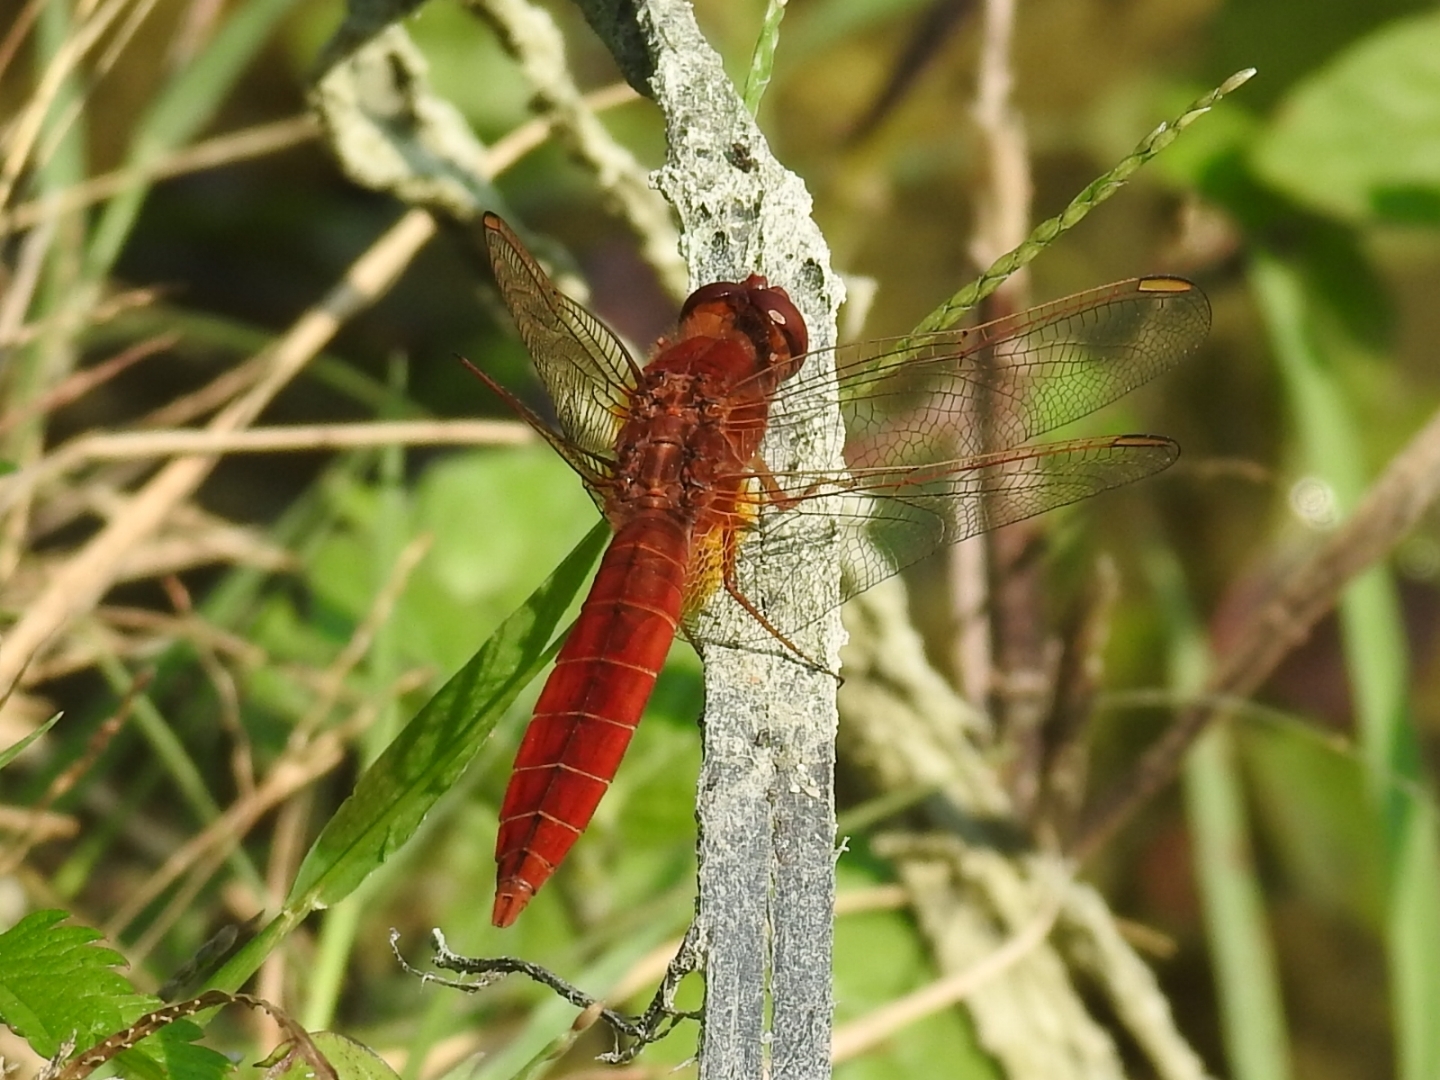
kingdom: Animalia
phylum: Arthropoda
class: Insecta
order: Odonata
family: Libellulidae
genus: Crocothemis
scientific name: Crocothemis erythraea
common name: Scarlet dragonfly
